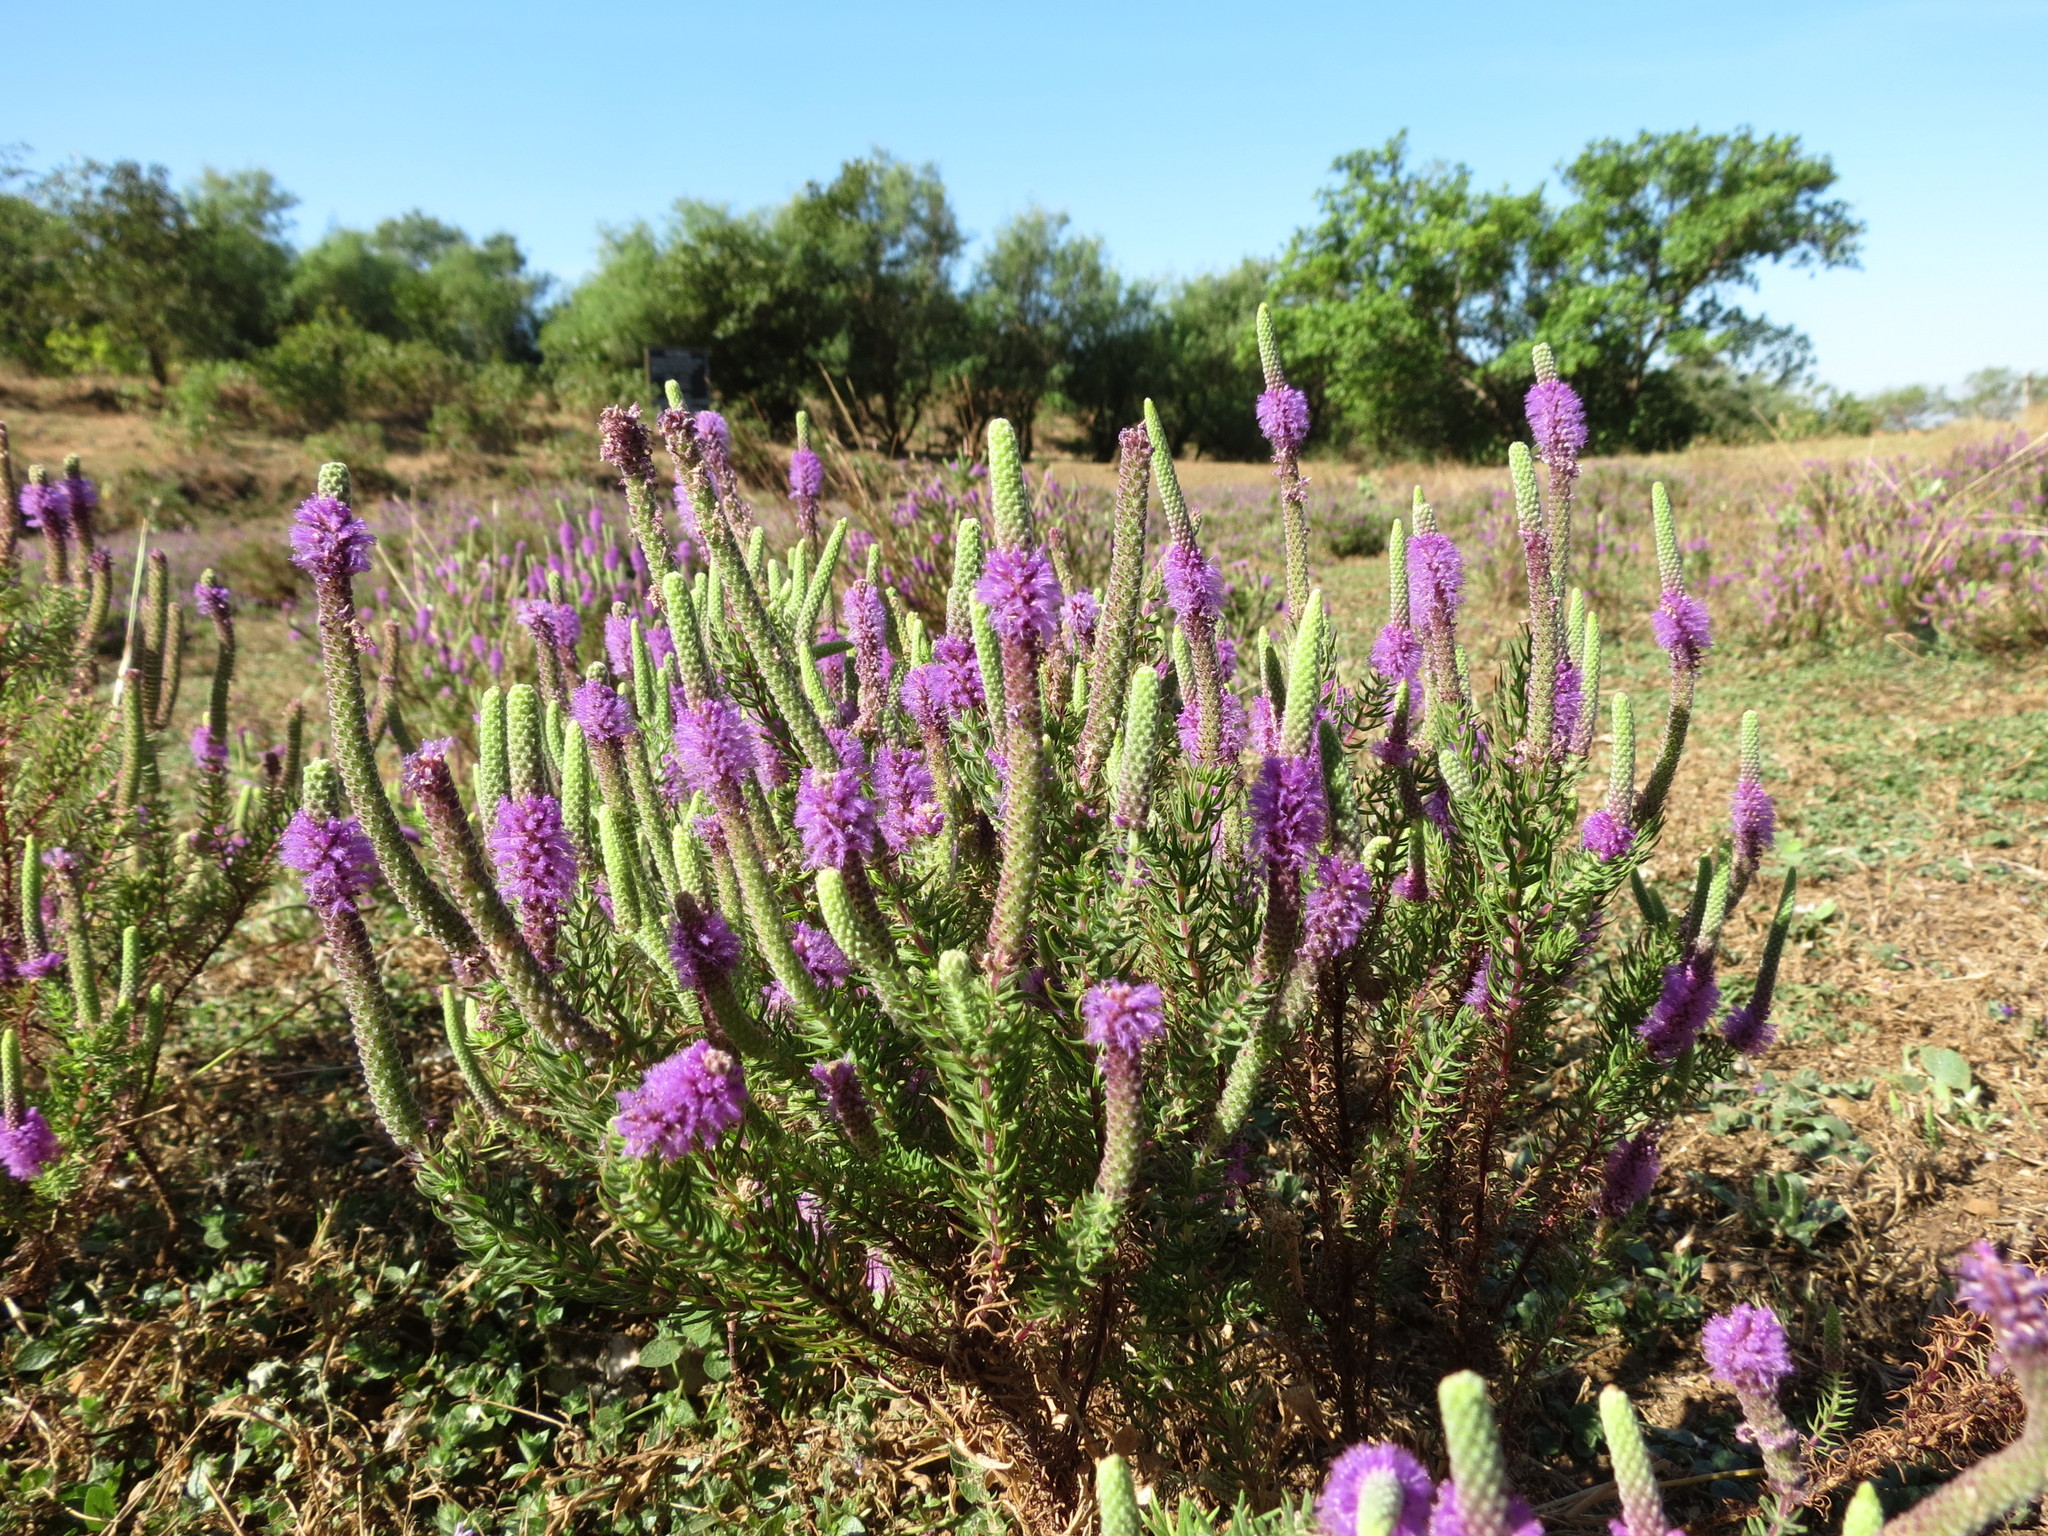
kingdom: Plantae
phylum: Tracheophyta
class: Magnoliopsida
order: Lamiales
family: Lamiaceae
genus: Pogostemon
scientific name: Pogostemon deccanensis
